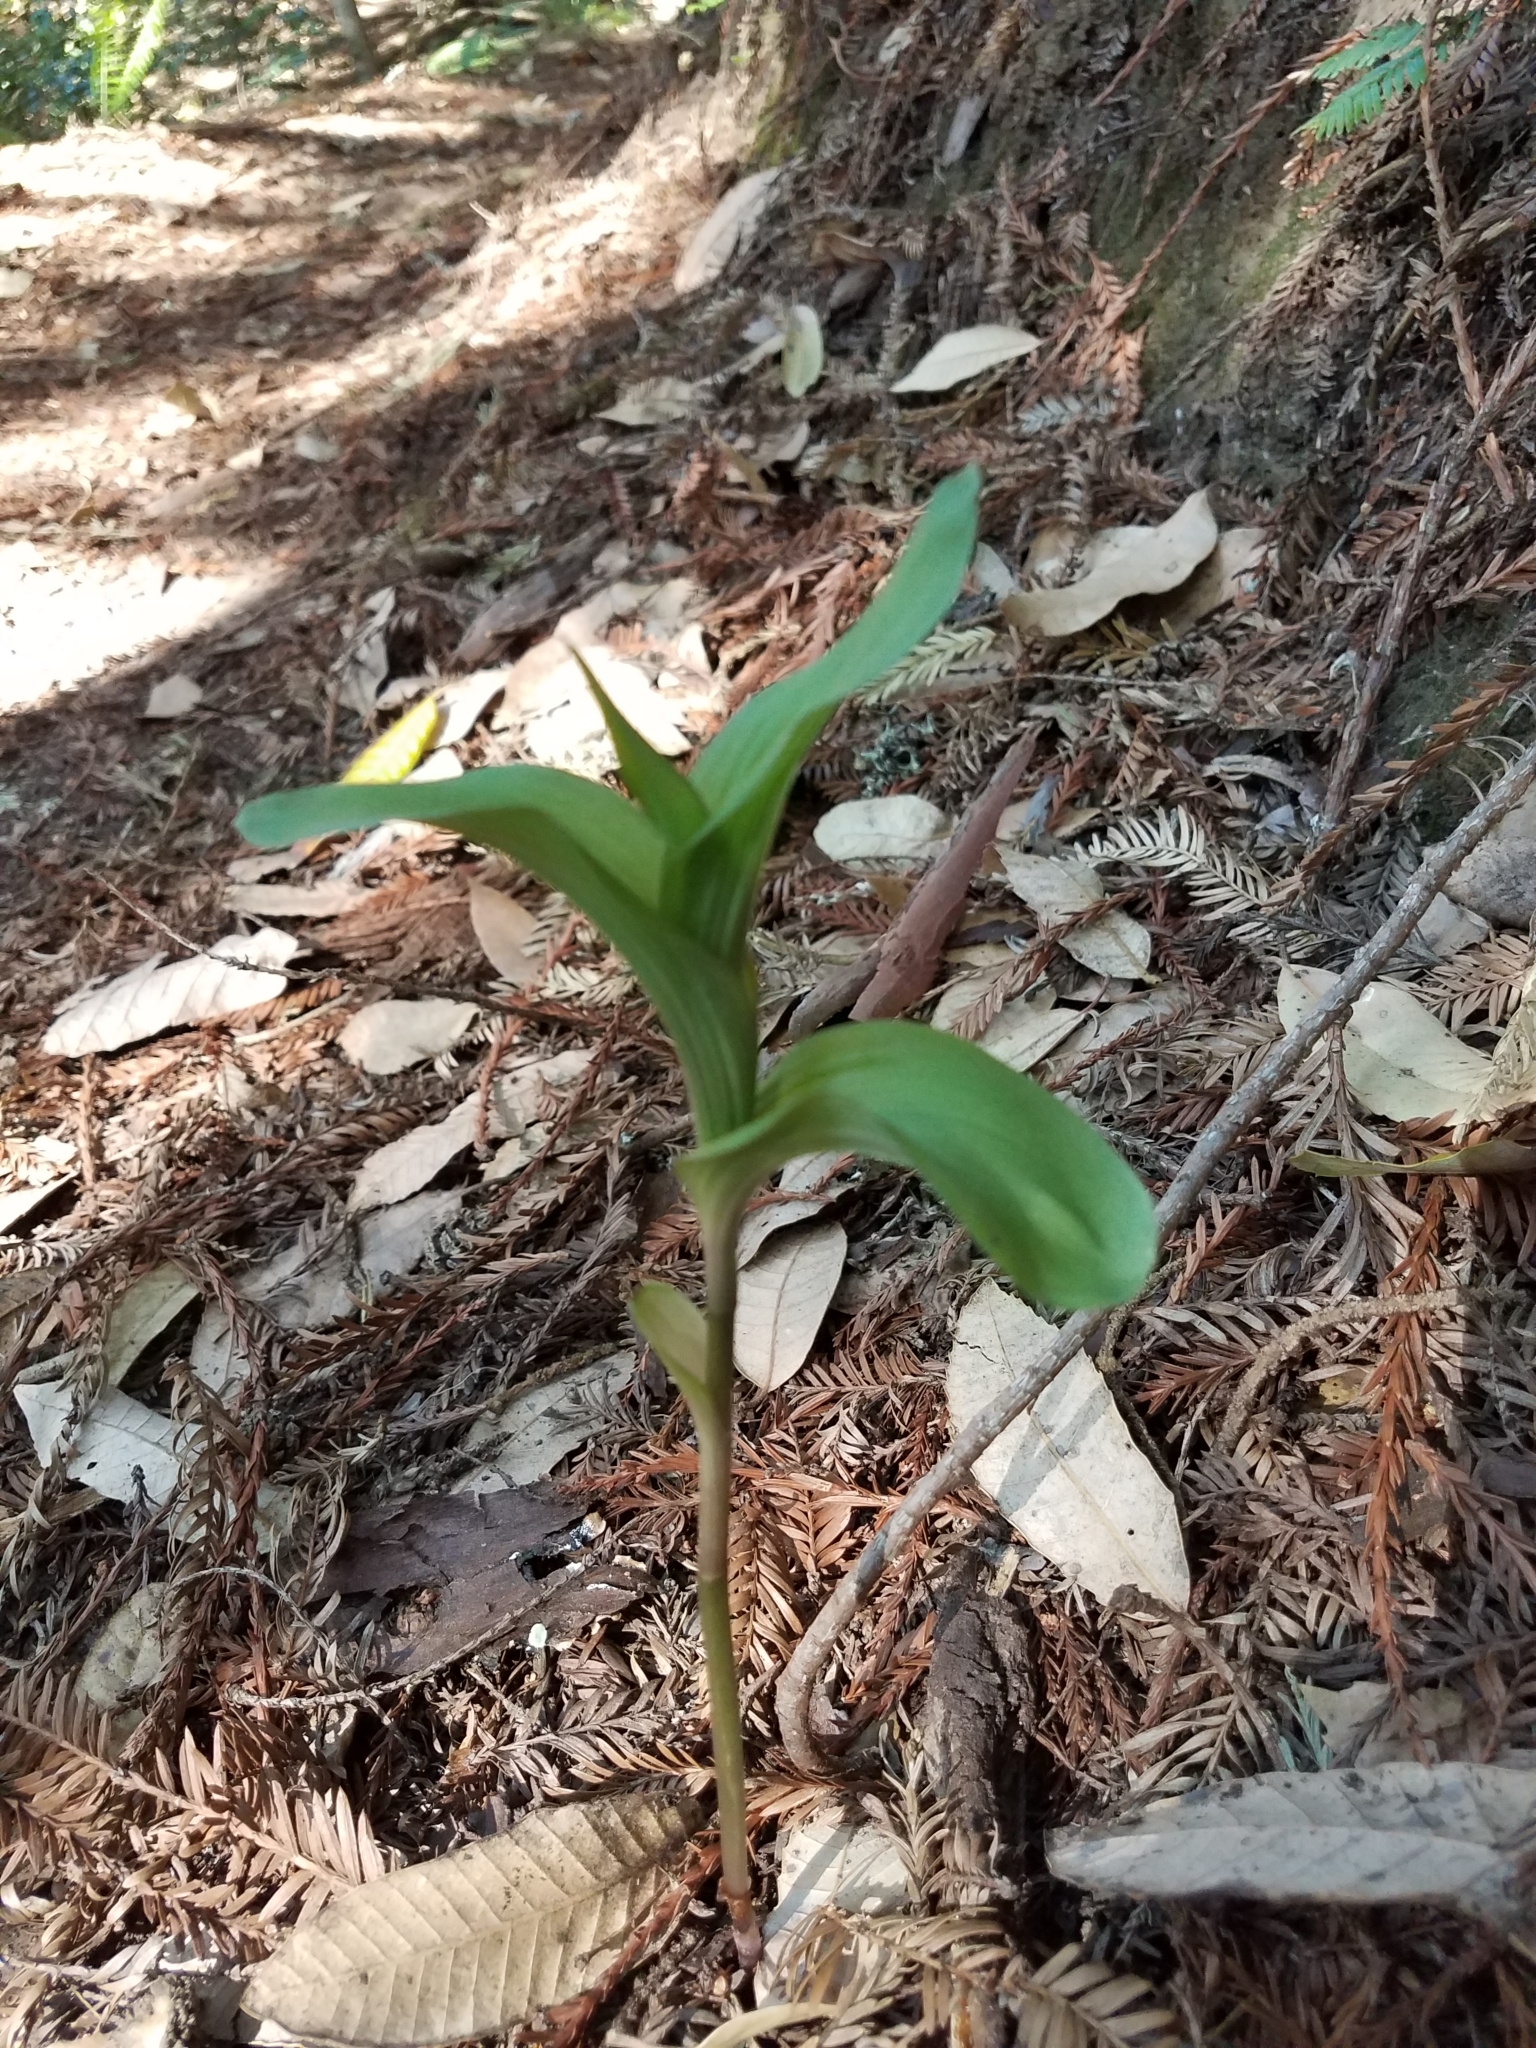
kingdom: Plantae
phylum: Tracheophyta
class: Liliopsida
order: Asparagales
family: Orchidaceae
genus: Epipactis
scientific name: Epipactis helleborine
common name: Broad-leaved helleborine
